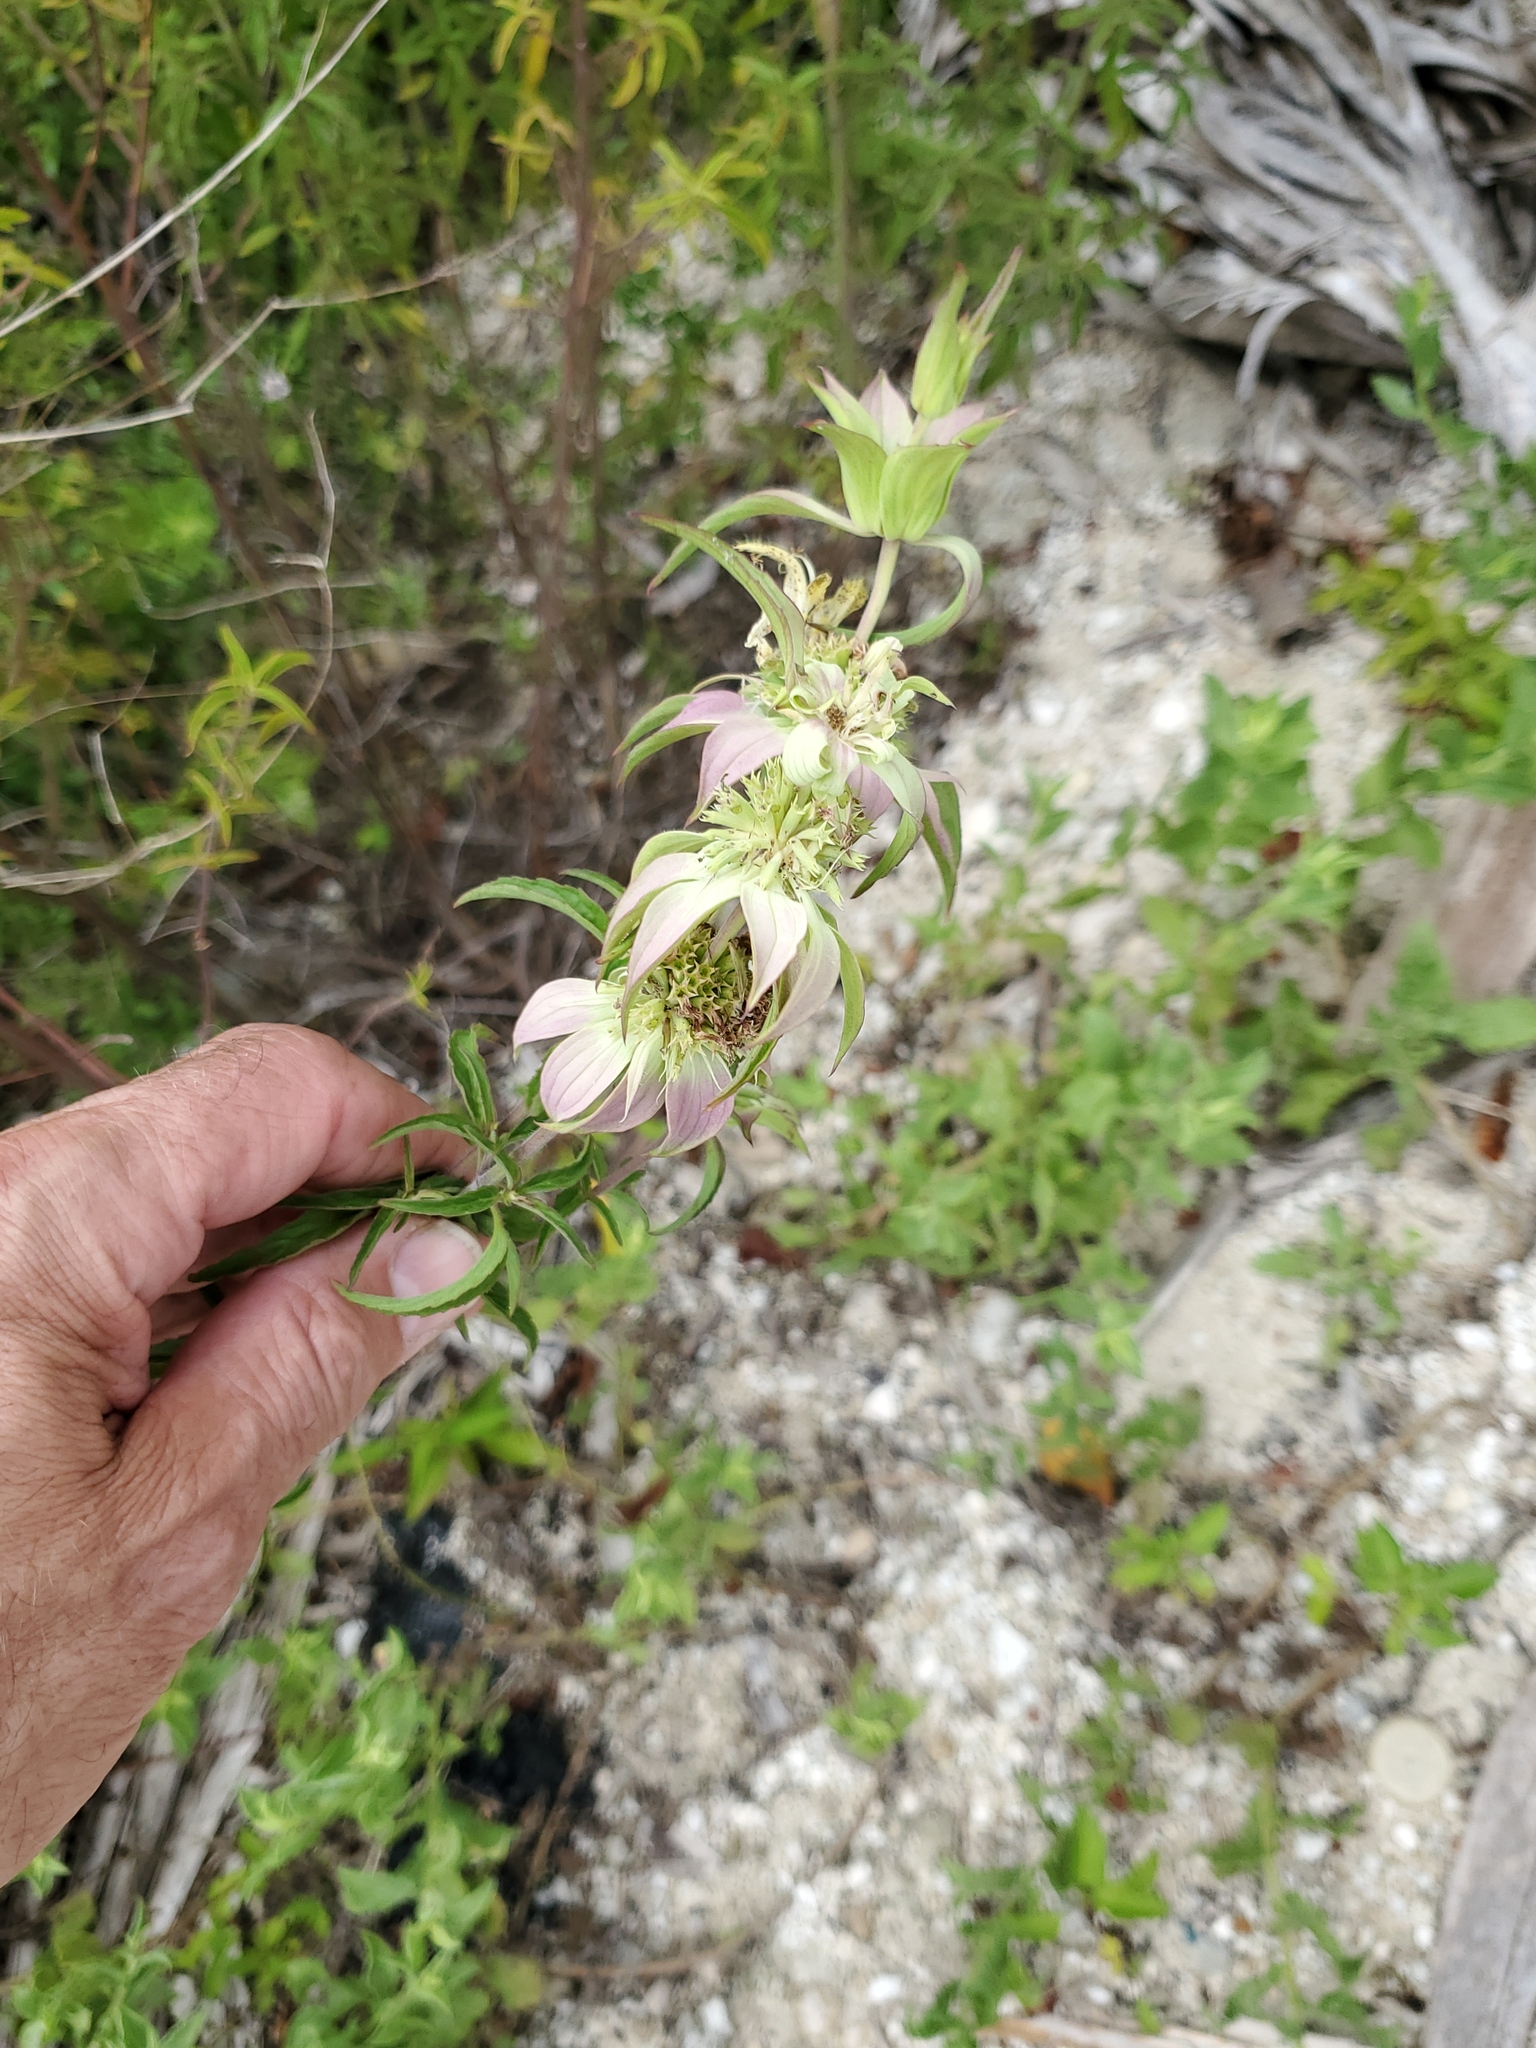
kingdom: Plantae
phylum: Tracheophyta
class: Magnoliopsida
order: Lamiales
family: Lamiaceae
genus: Monarda
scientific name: Monarda punctata
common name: Dotted monarda
